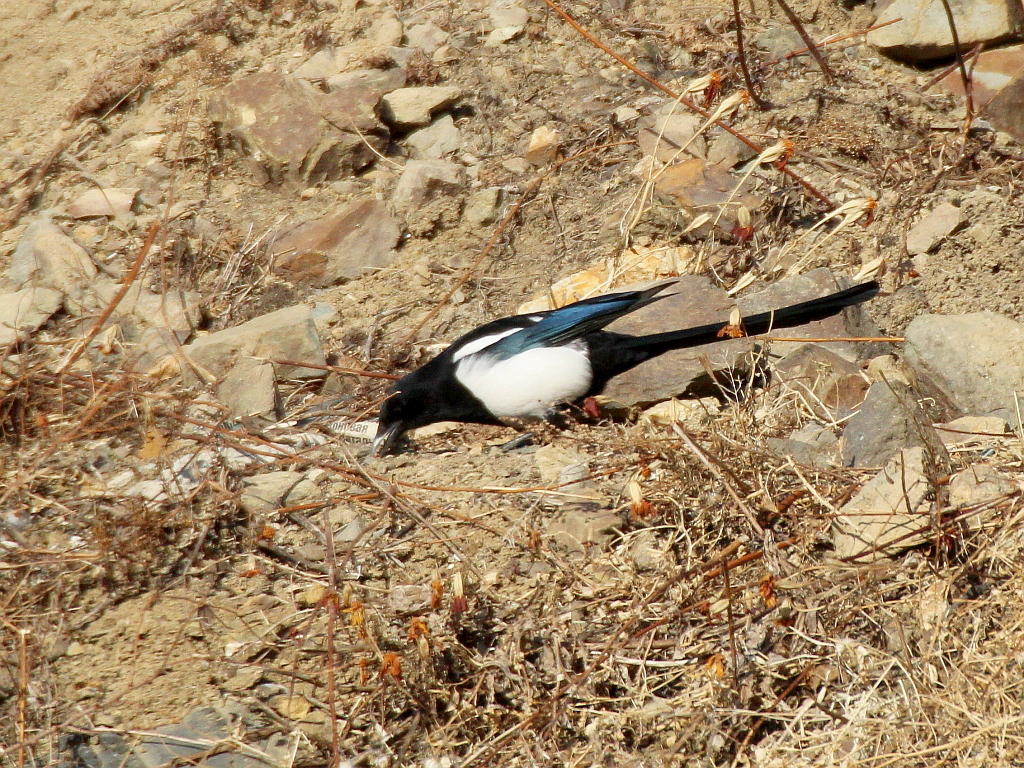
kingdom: Animalia
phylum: Chordata
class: Aves
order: Passeriformes
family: Corvidae
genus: Pica
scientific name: Pica serica
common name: Oriental magpie
